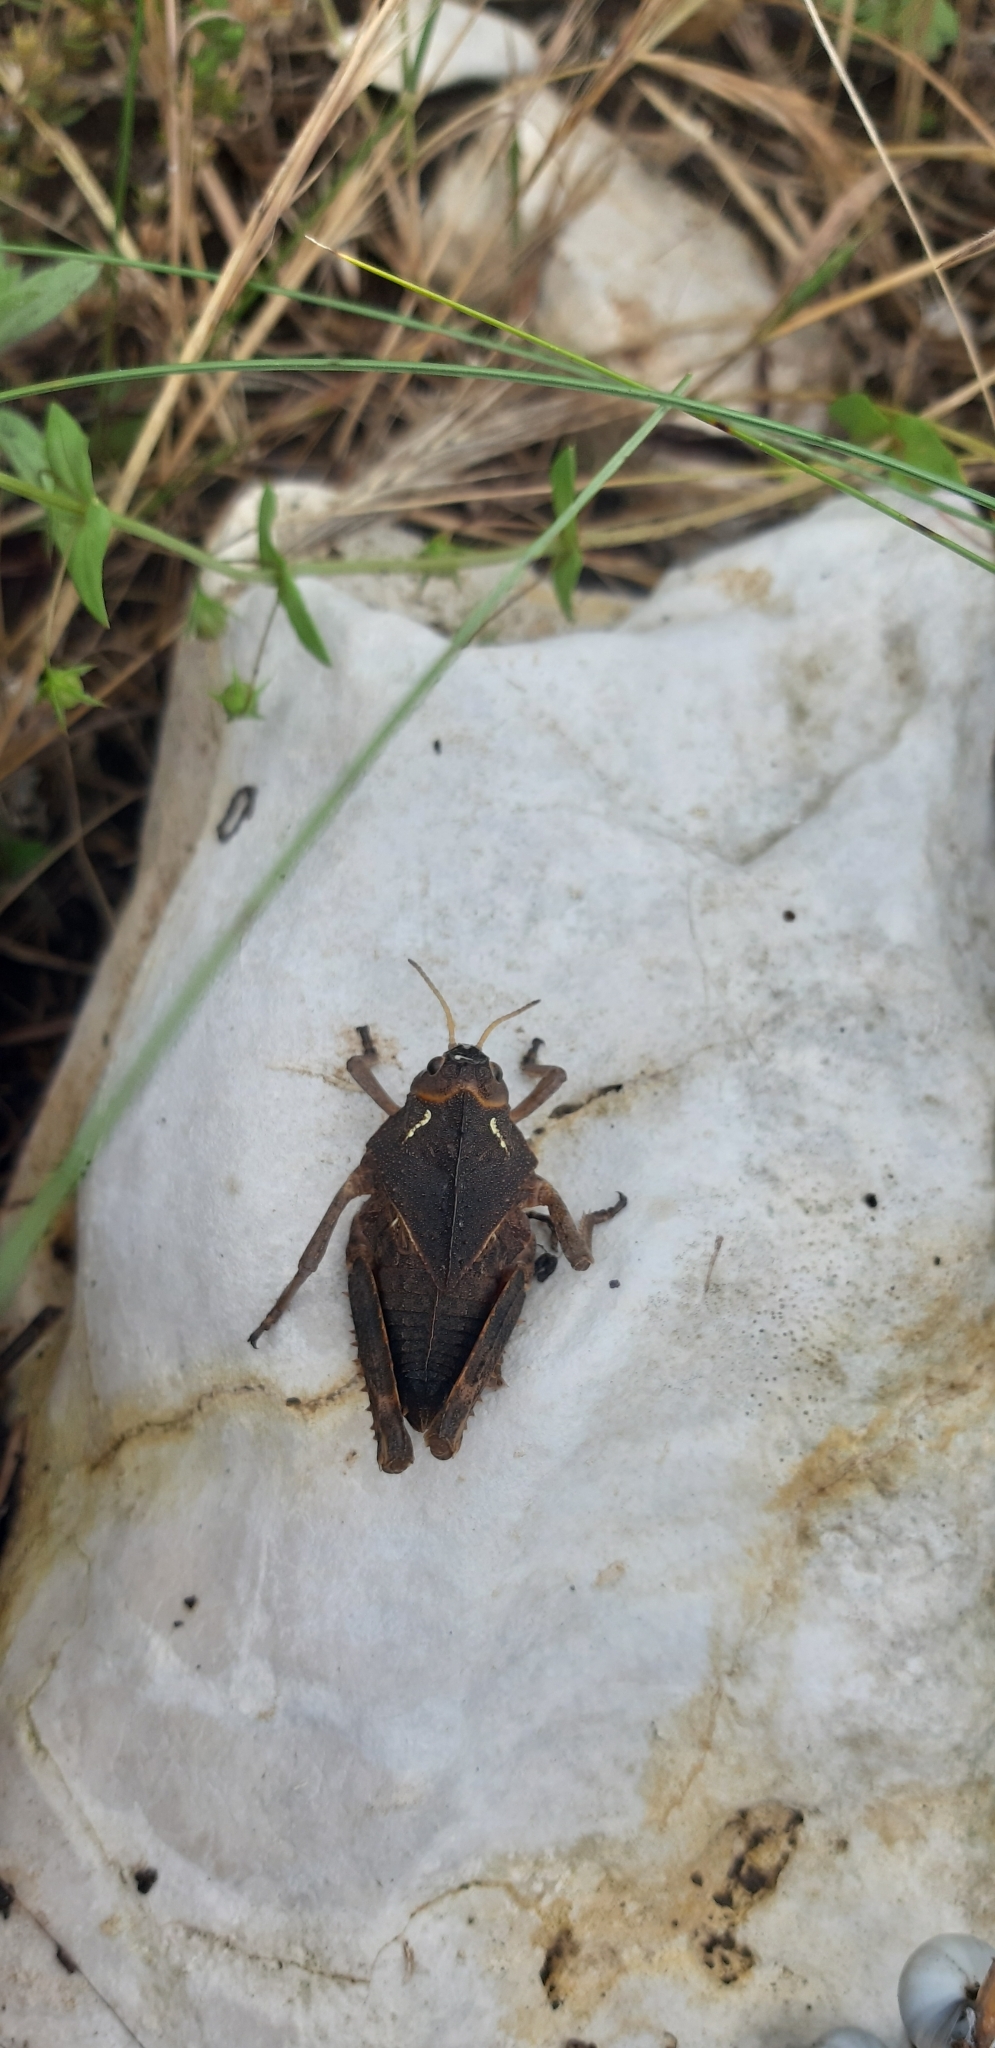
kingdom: Animalia
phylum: Arthropoda
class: Insecta
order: Orthoptera
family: Pamphagidae
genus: Prionotropis
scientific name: Prionotropis appula
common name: Apulian stone grasshopper
